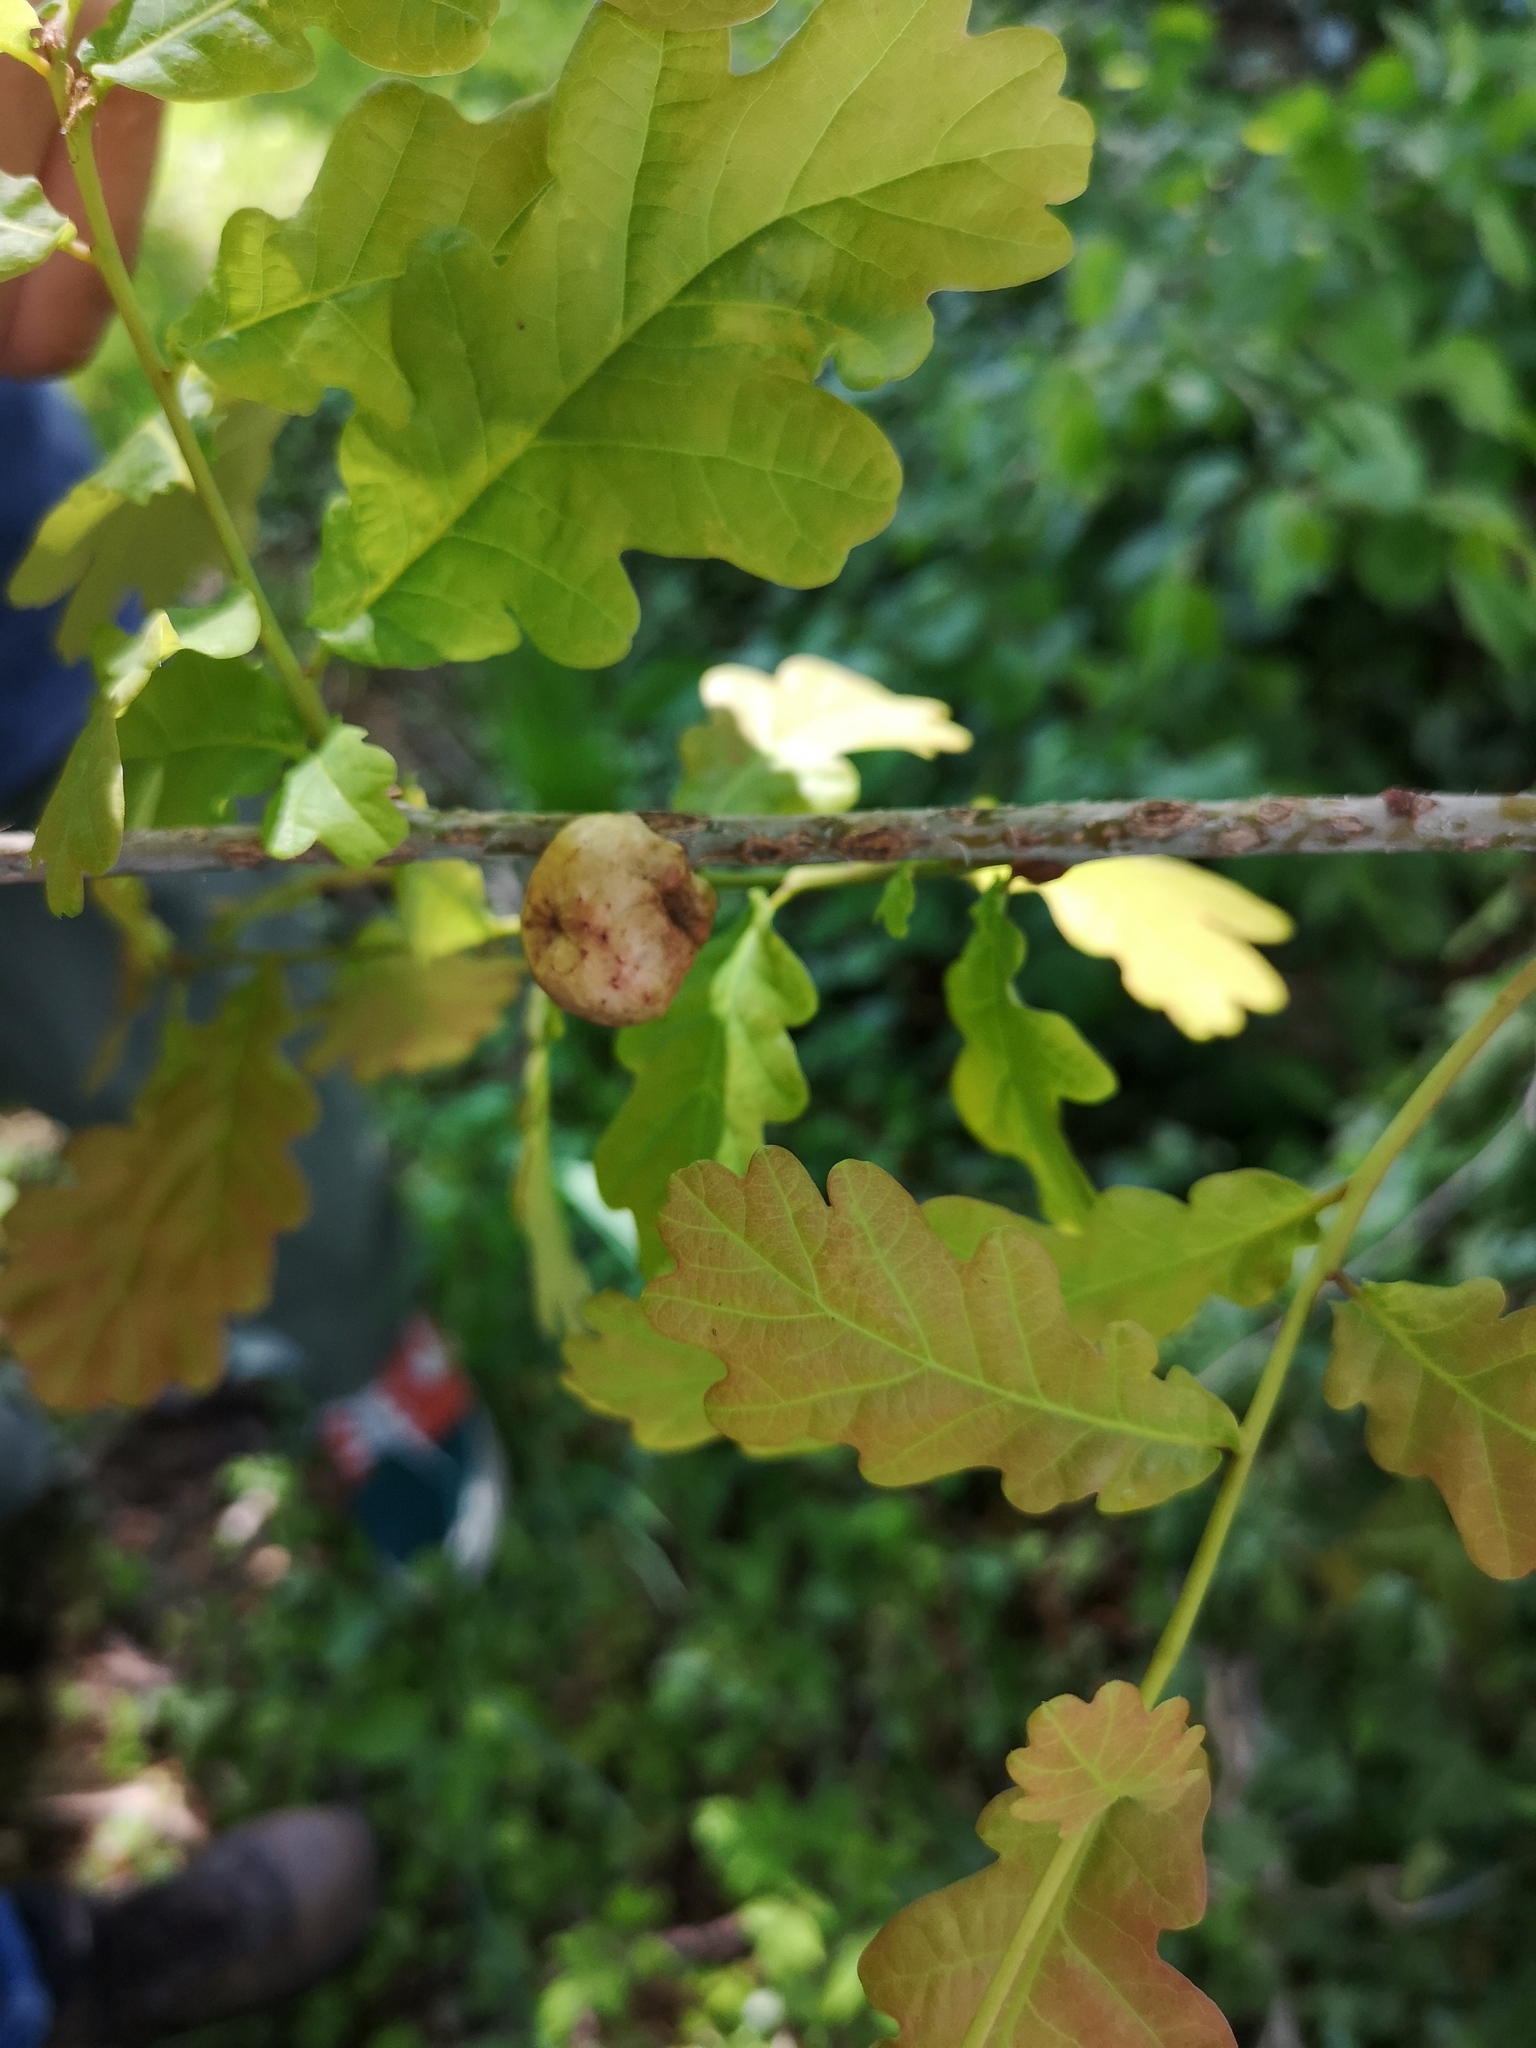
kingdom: Animalia
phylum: Arthropoda
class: Insecta
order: Hymenoptera
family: Cynipidae
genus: Biorhiza
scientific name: Biorhiza pallida
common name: Oak apple
